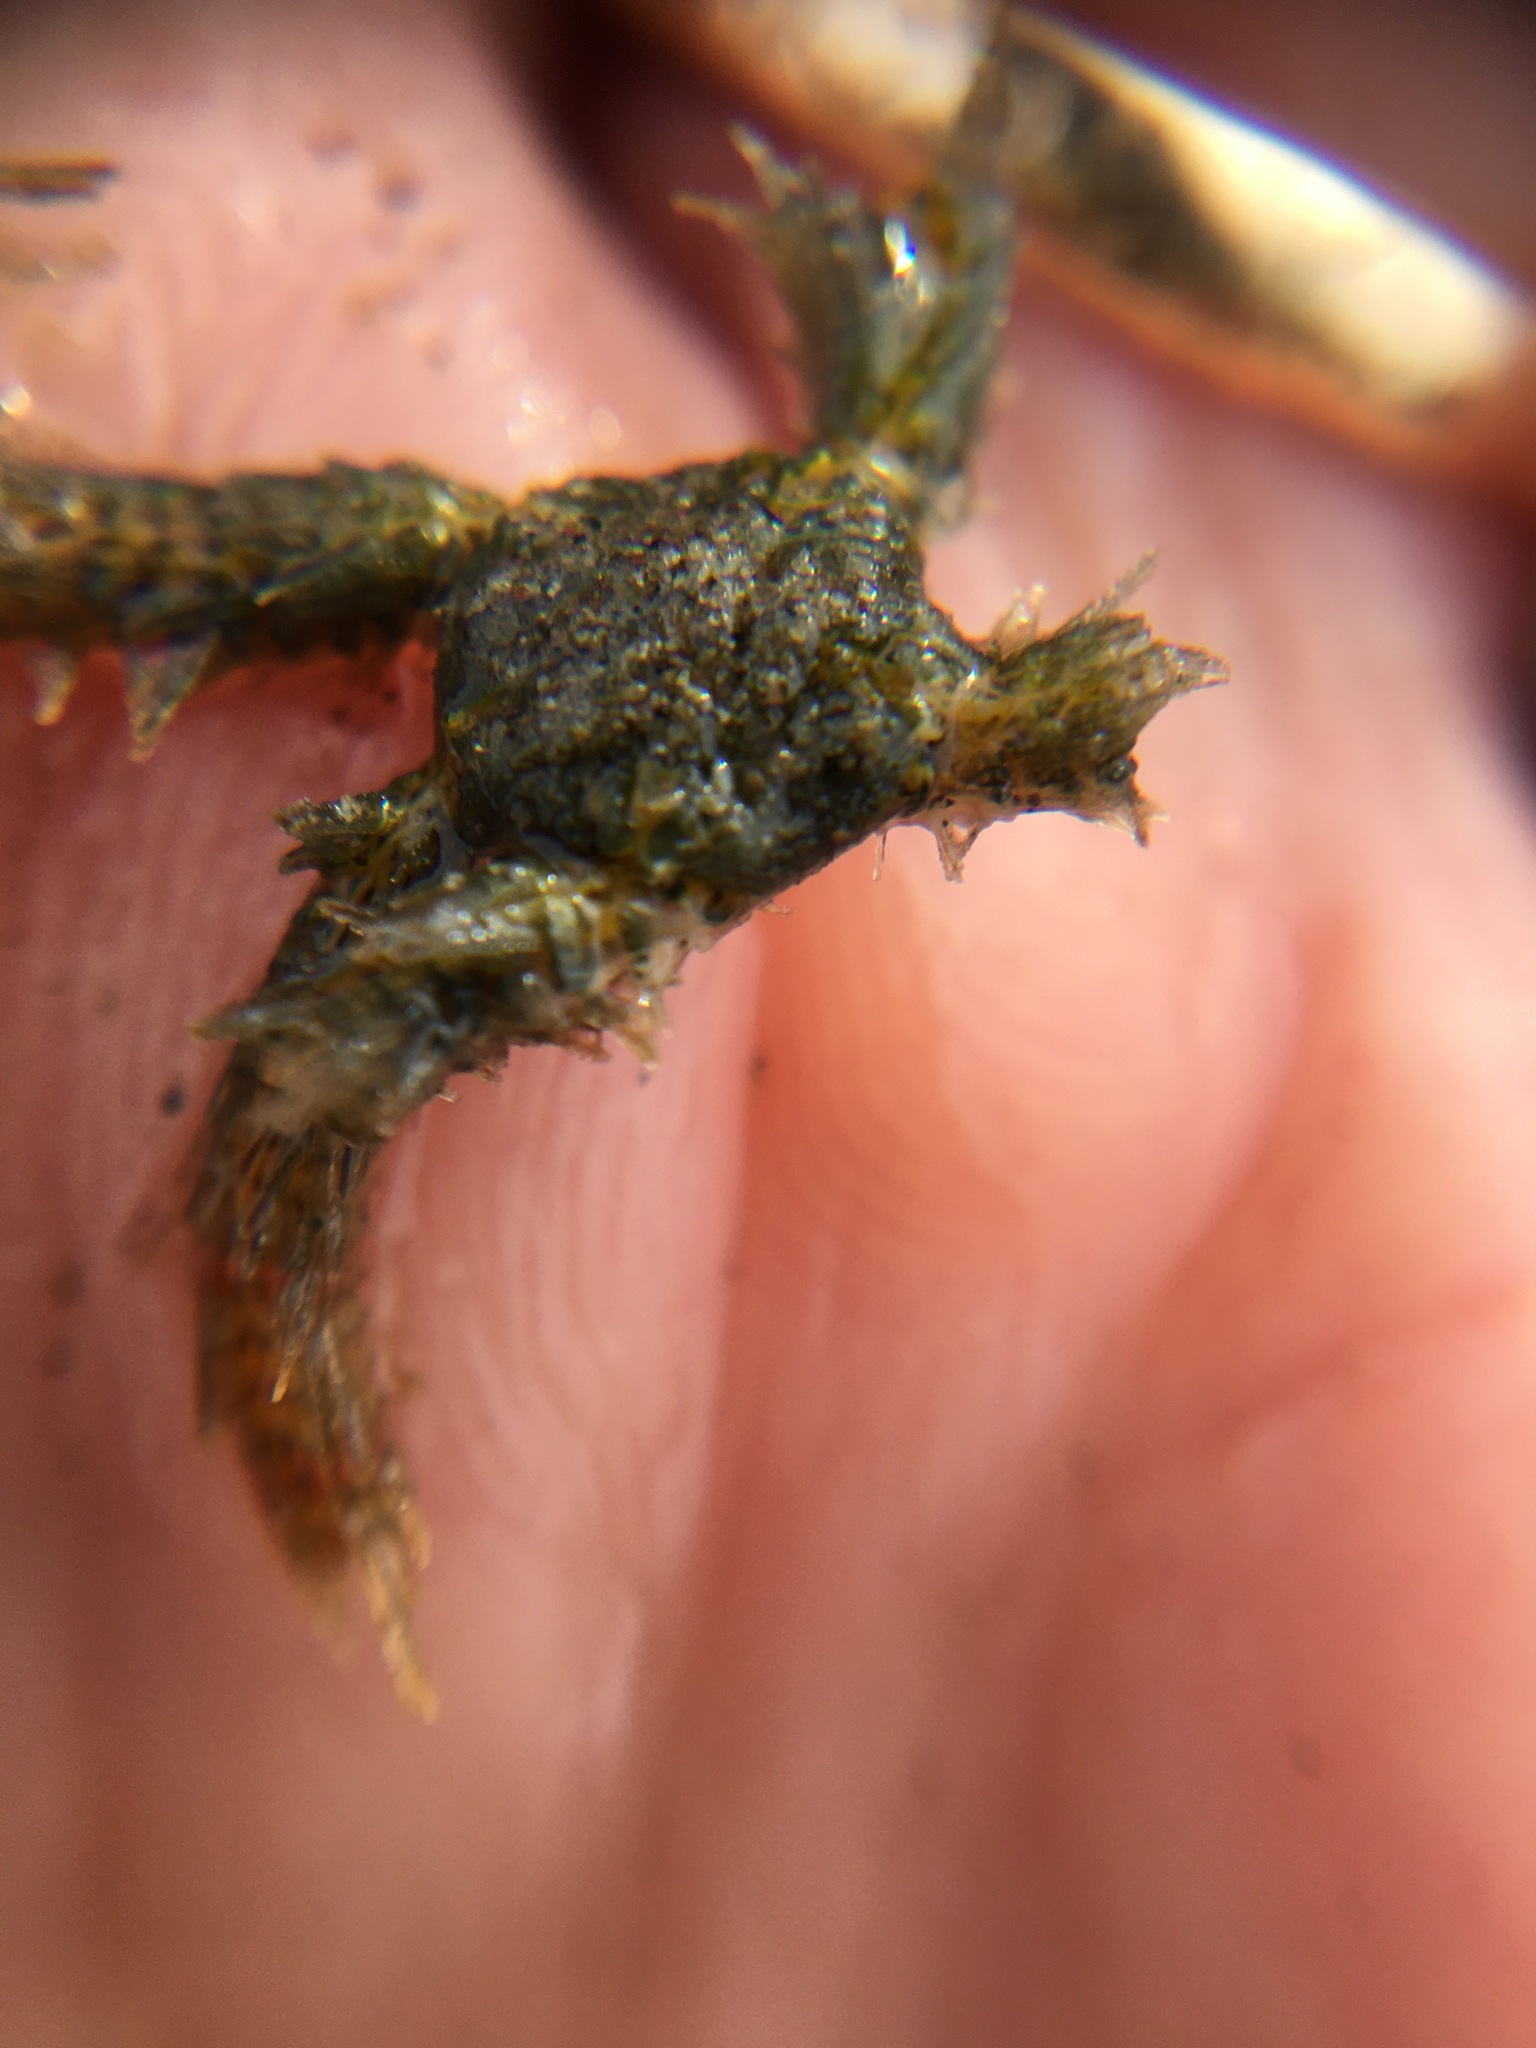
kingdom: Animalia
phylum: Echinodermata
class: Ophiuroidea
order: Amphilepidida
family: Ophiotrichidae
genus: Ophiothrix
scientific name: Ophiothrix spiculata
